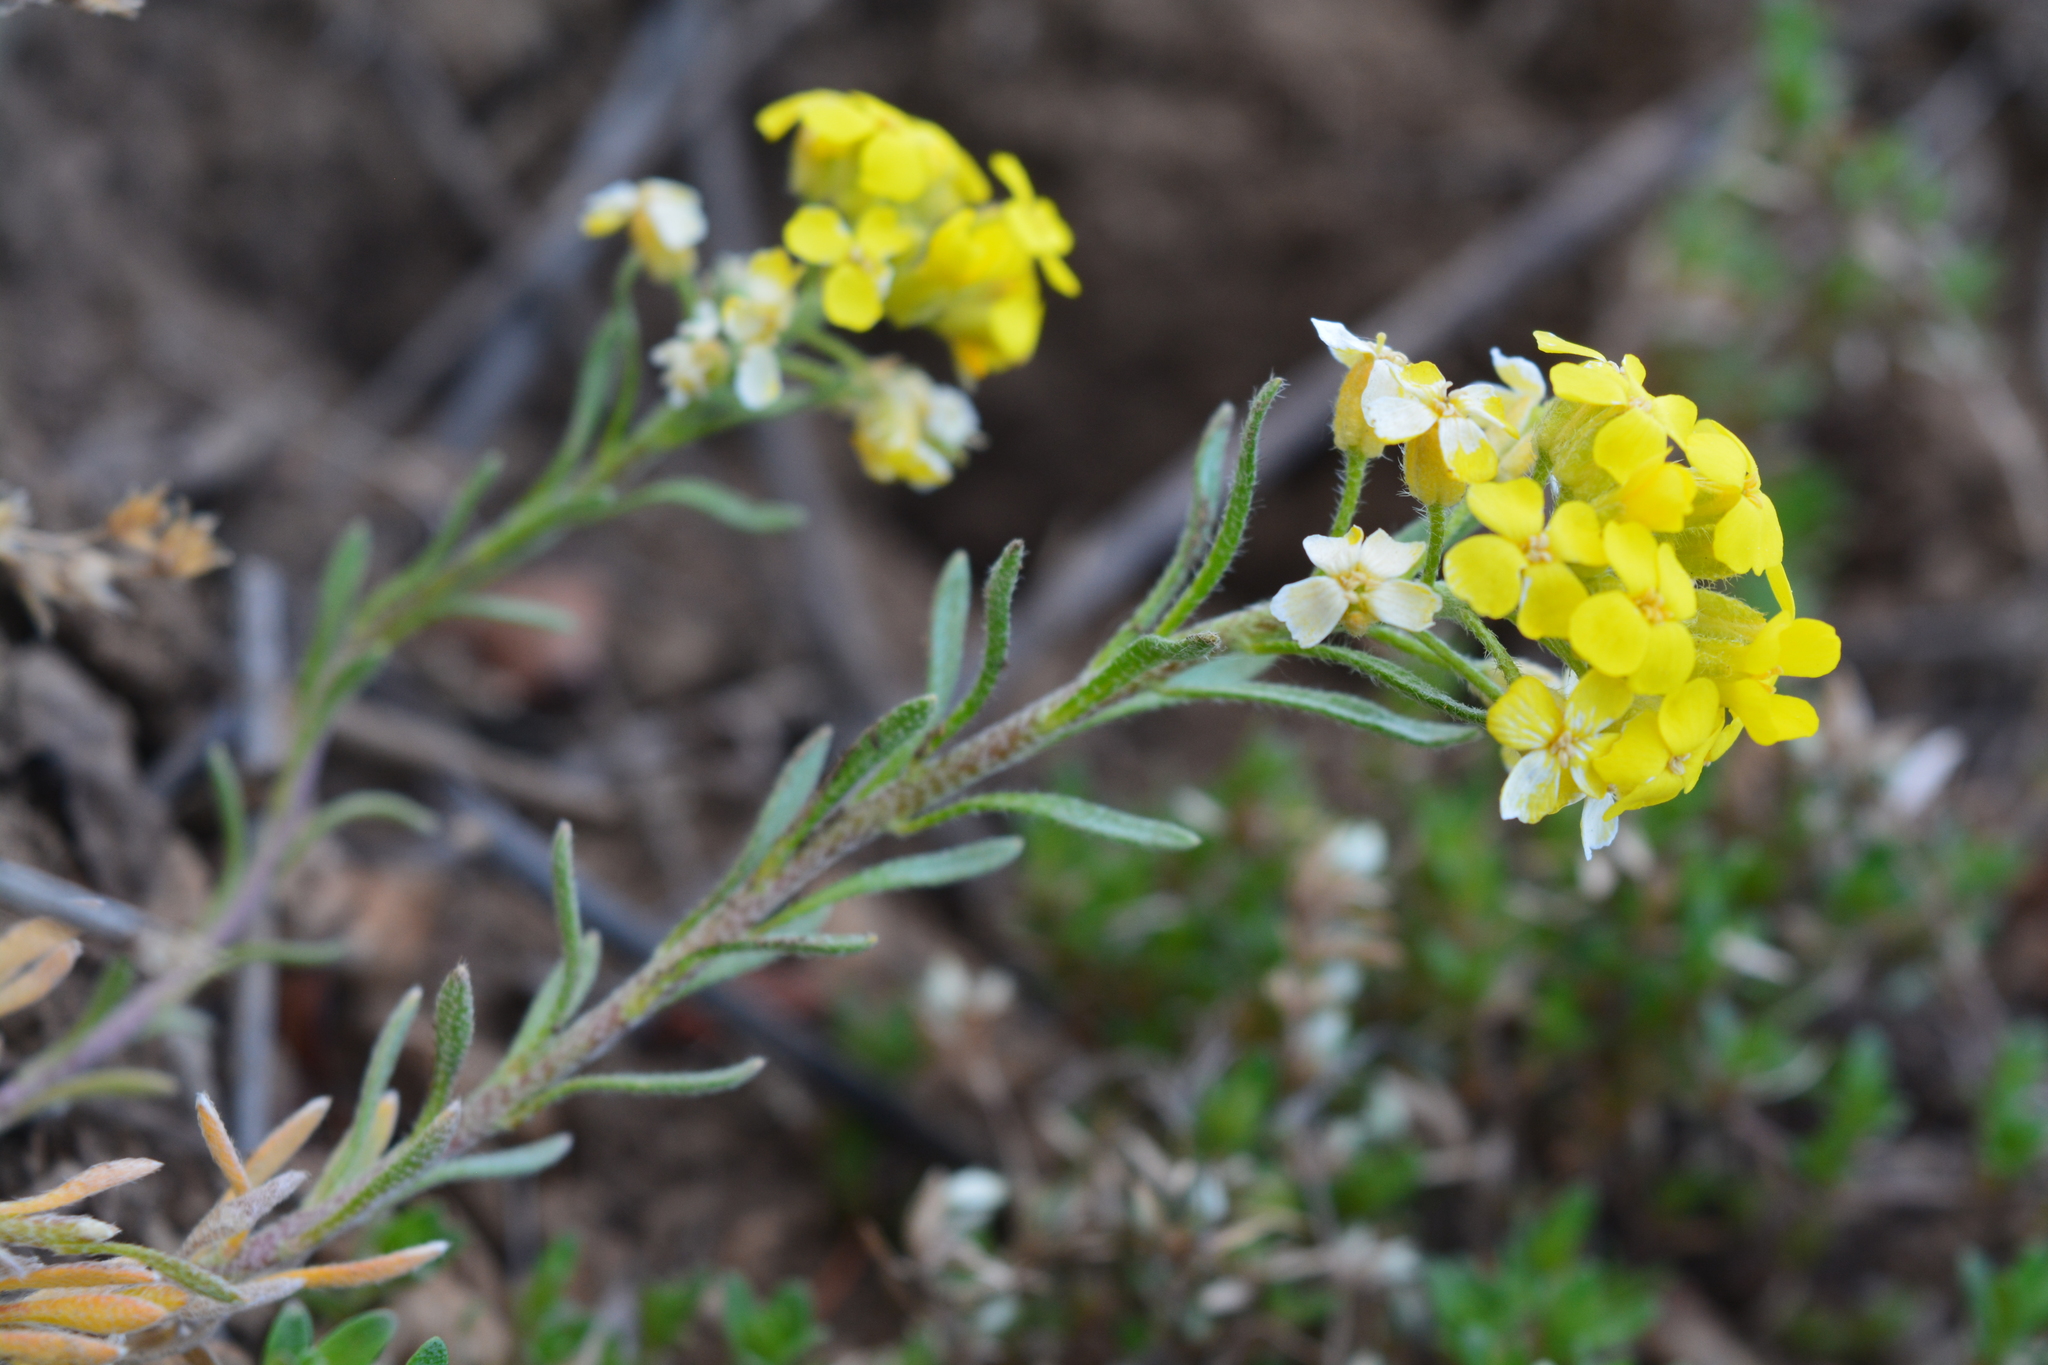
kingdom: Plantae
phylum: Tracheophyta
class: Magnoliopsida
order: Brassicales
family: Brassicaceae
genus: Alyssum
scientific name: Alyssum lenense
